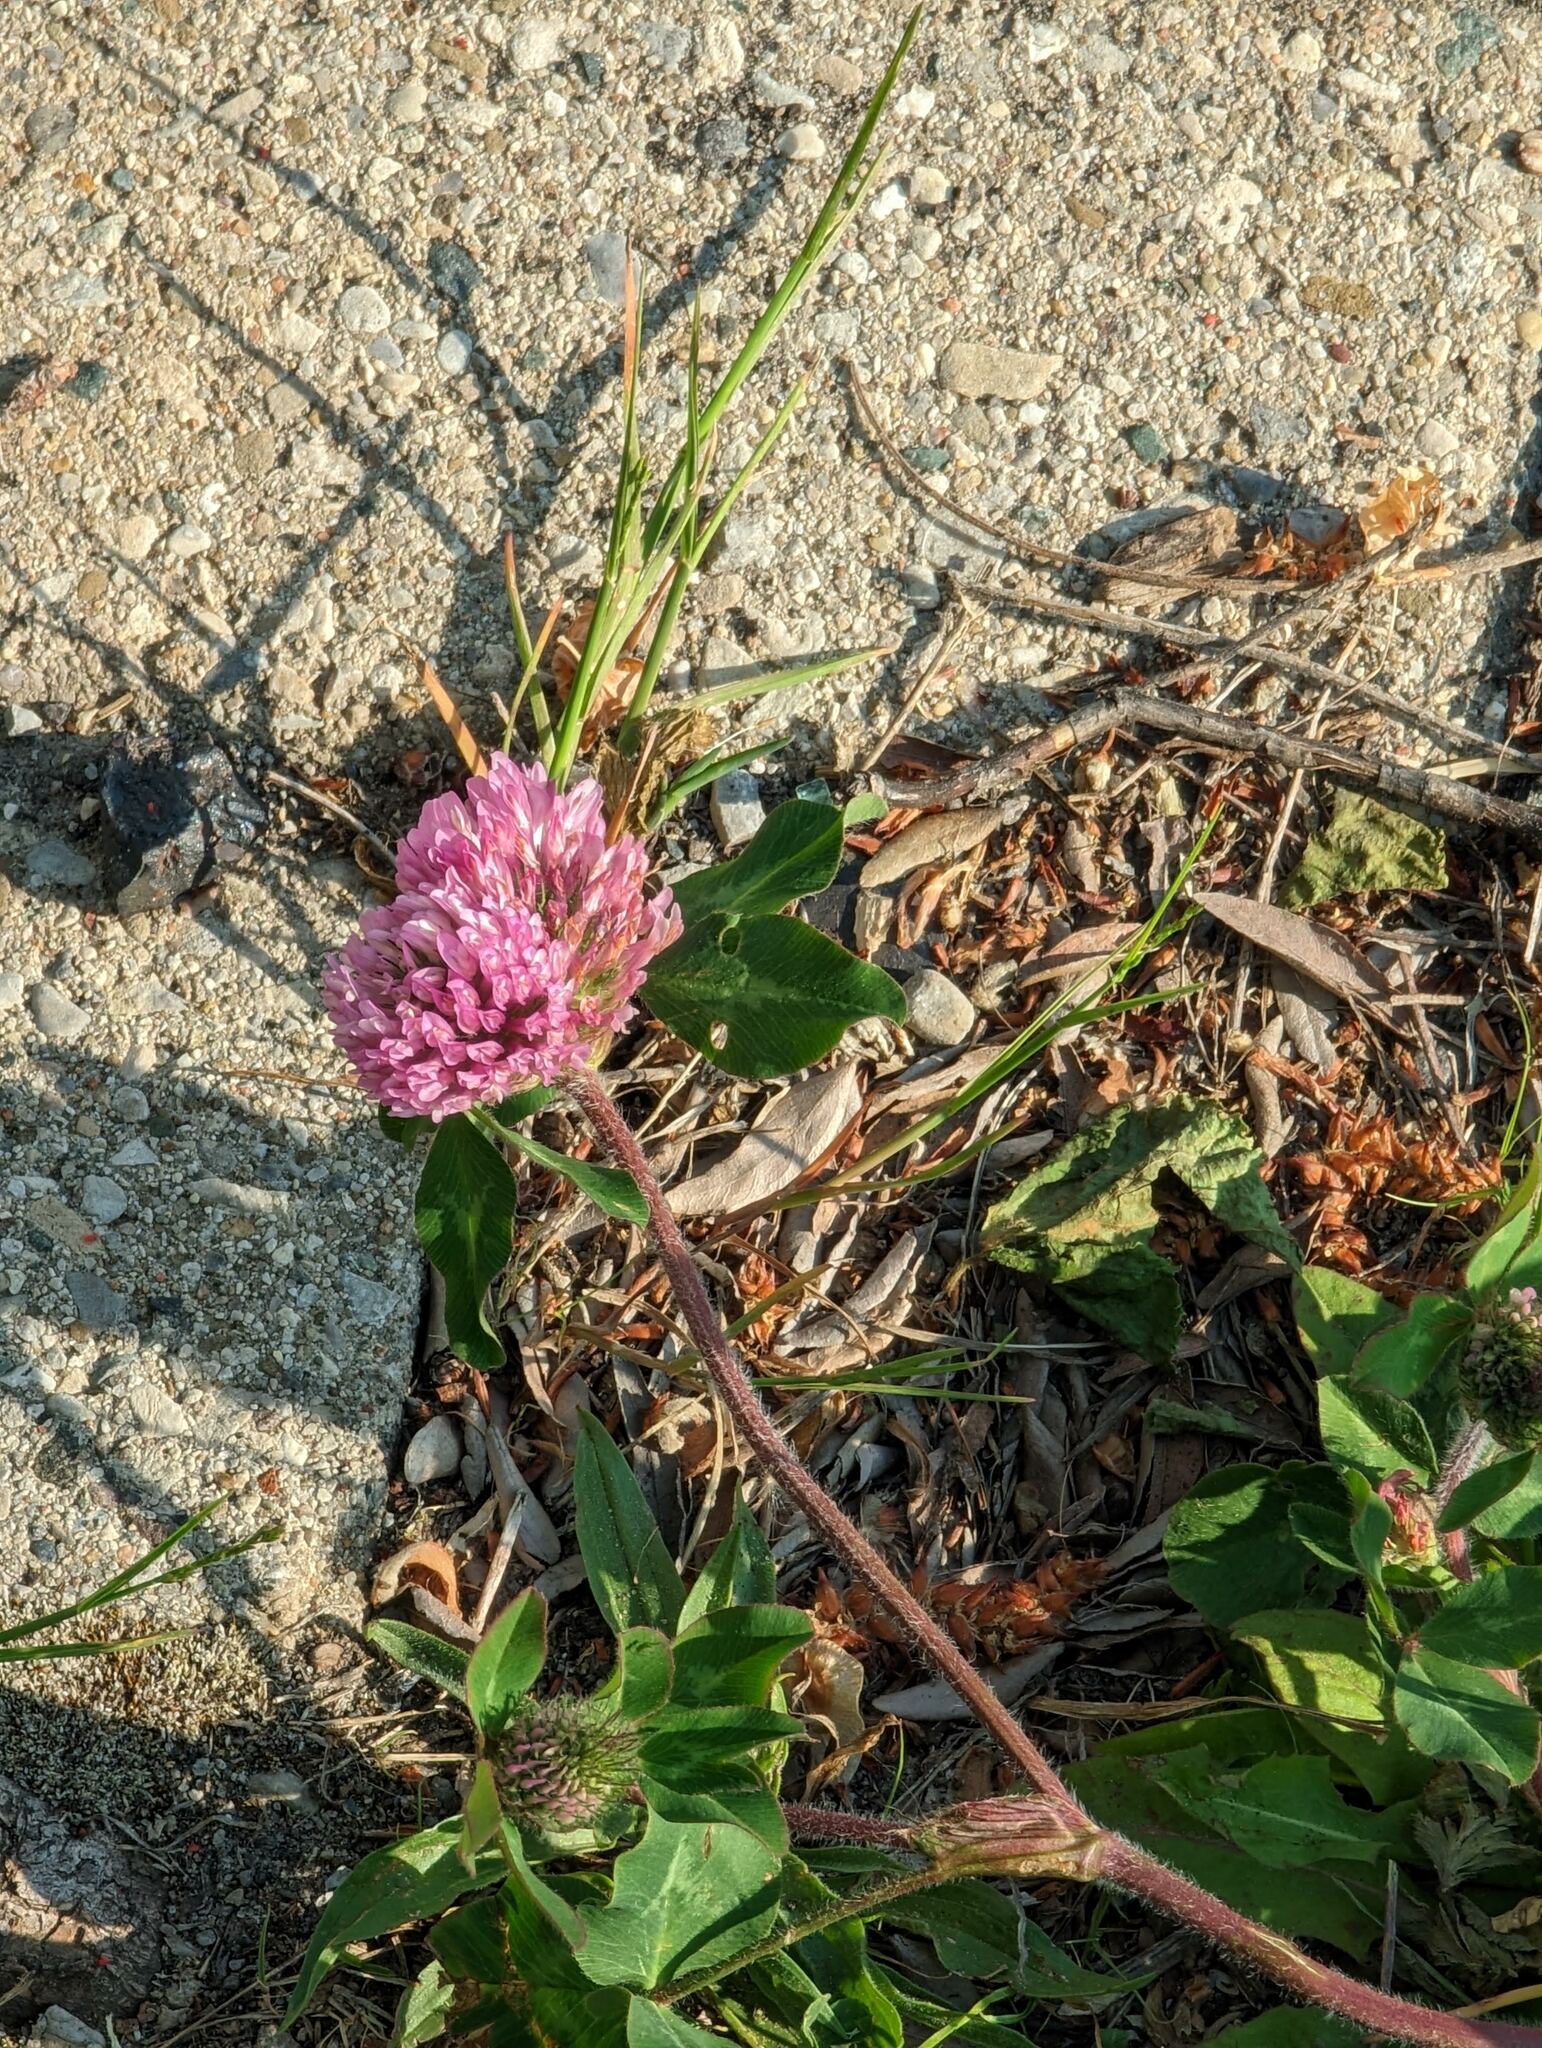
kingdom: Plantae
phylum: Tracheophyta
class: Magnoliopsida
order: Fabales
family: Fabaceae
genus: Trifolium
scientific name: Trifolium pratense
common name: Red clover
